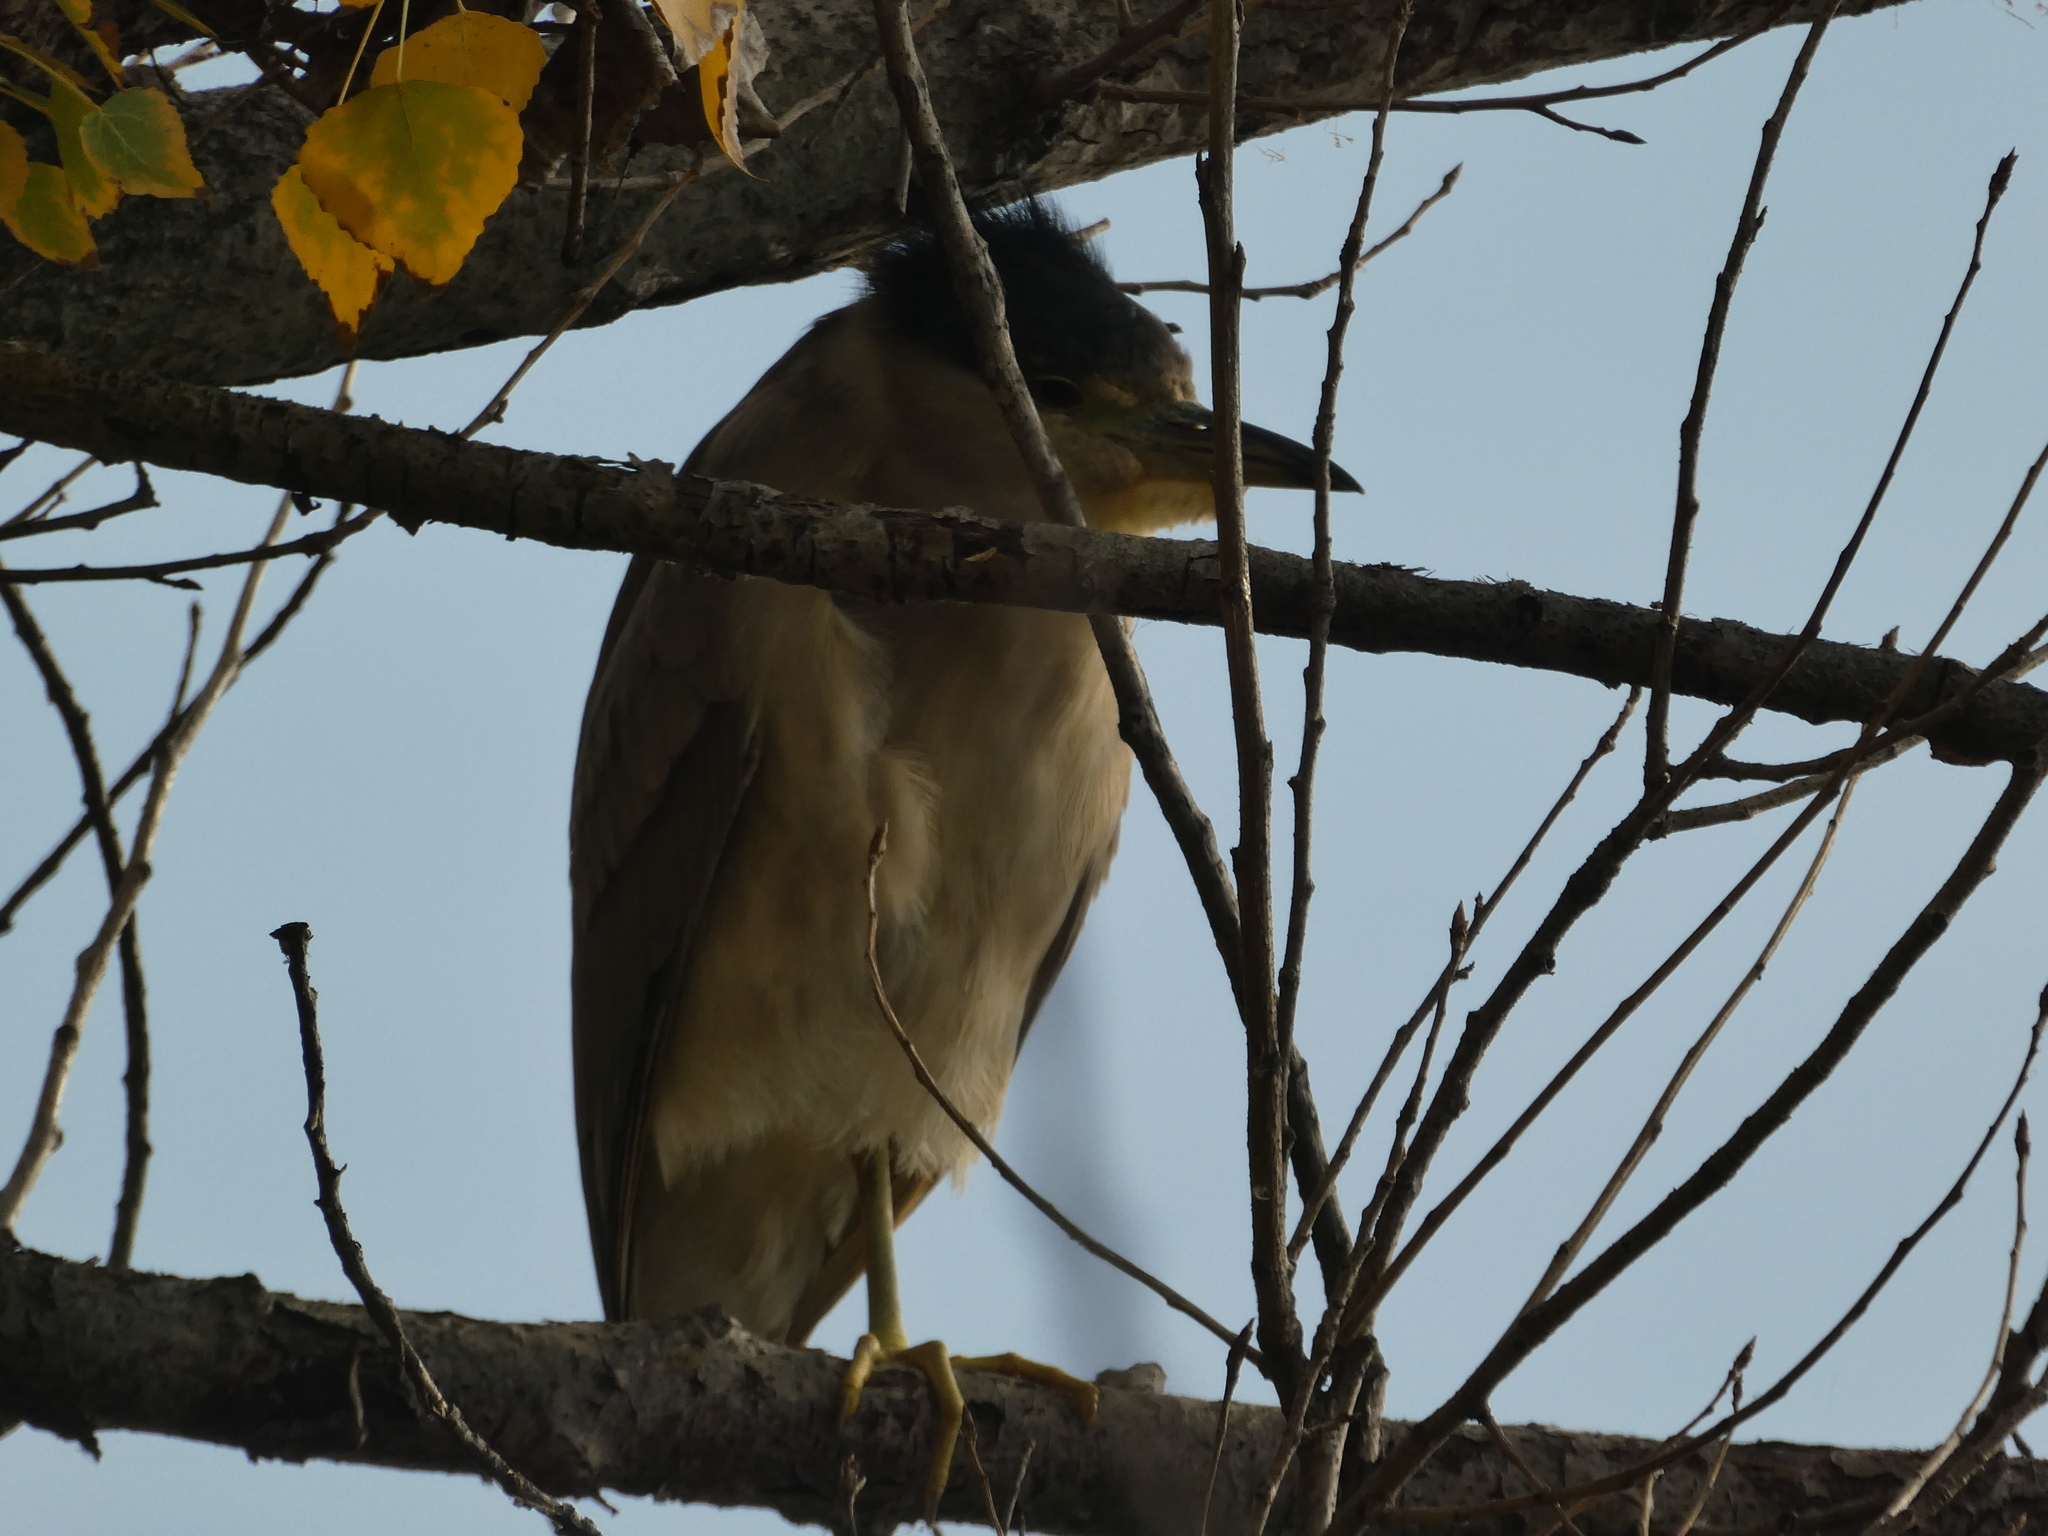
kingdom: Animalia
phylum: Chordata
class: Aves
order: Pelecaniformes
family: Ardeidae
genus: Nycticorax
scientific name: Nycticorax nycticorax
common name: Black-crowned night heron
